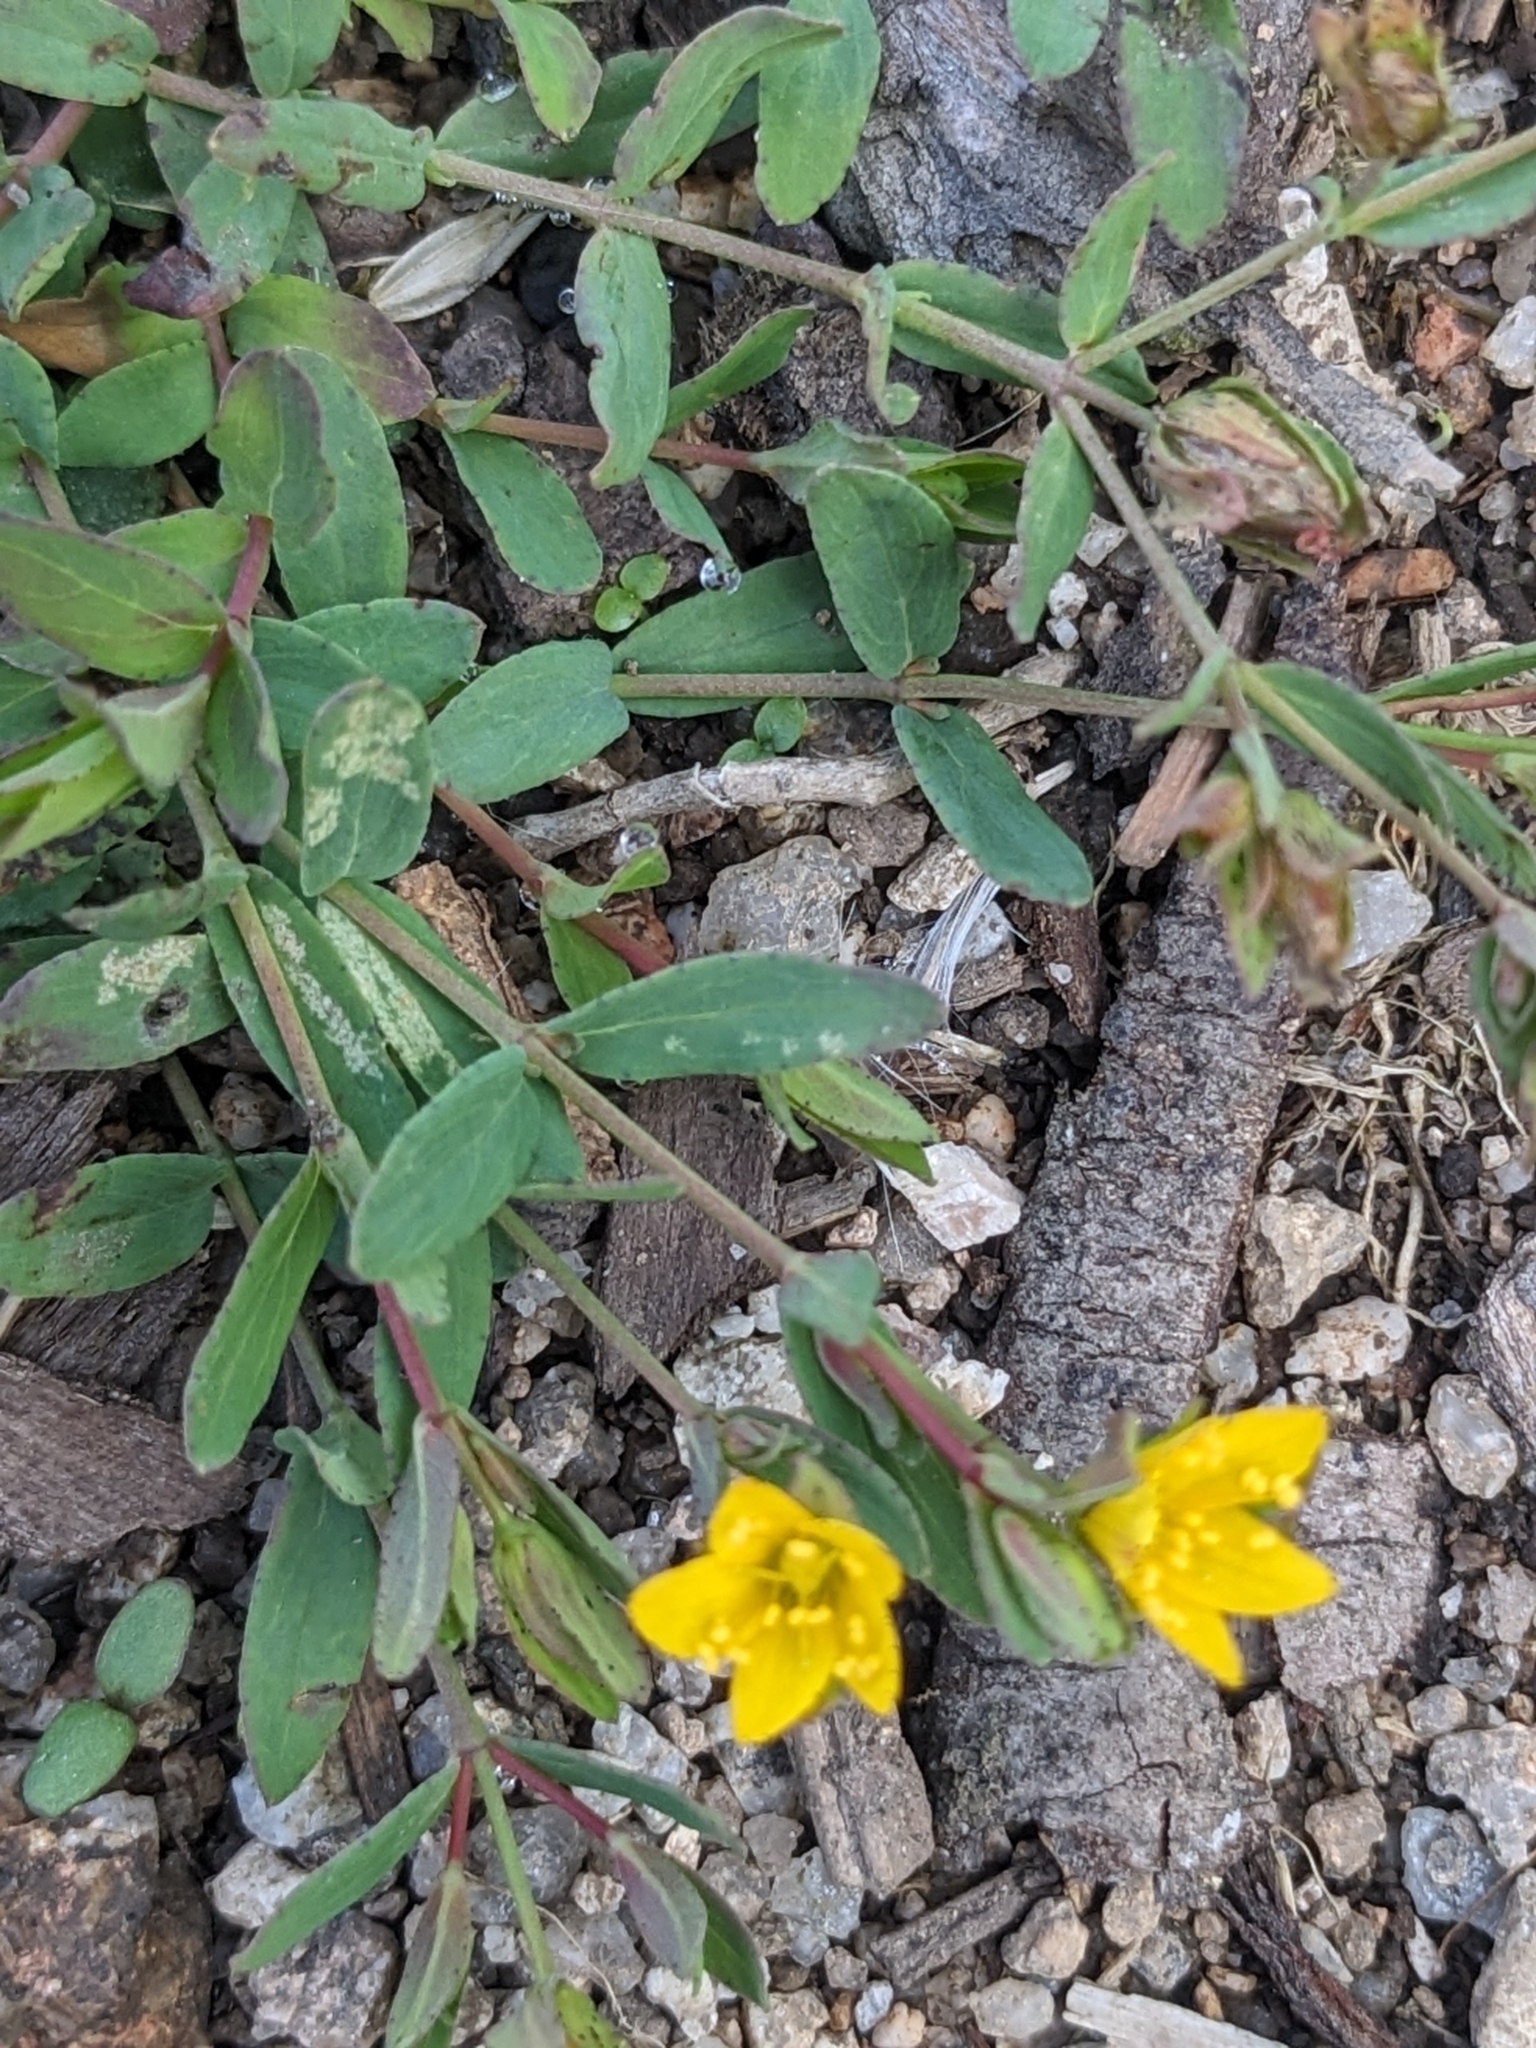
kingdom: Plantae
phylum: Tracheophyta
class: Magnoliopsida
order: Malpighiales
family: Hypericaceae
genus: Hypericum
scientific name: Hypericum humifusum
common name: Trailing st. john's-wort
